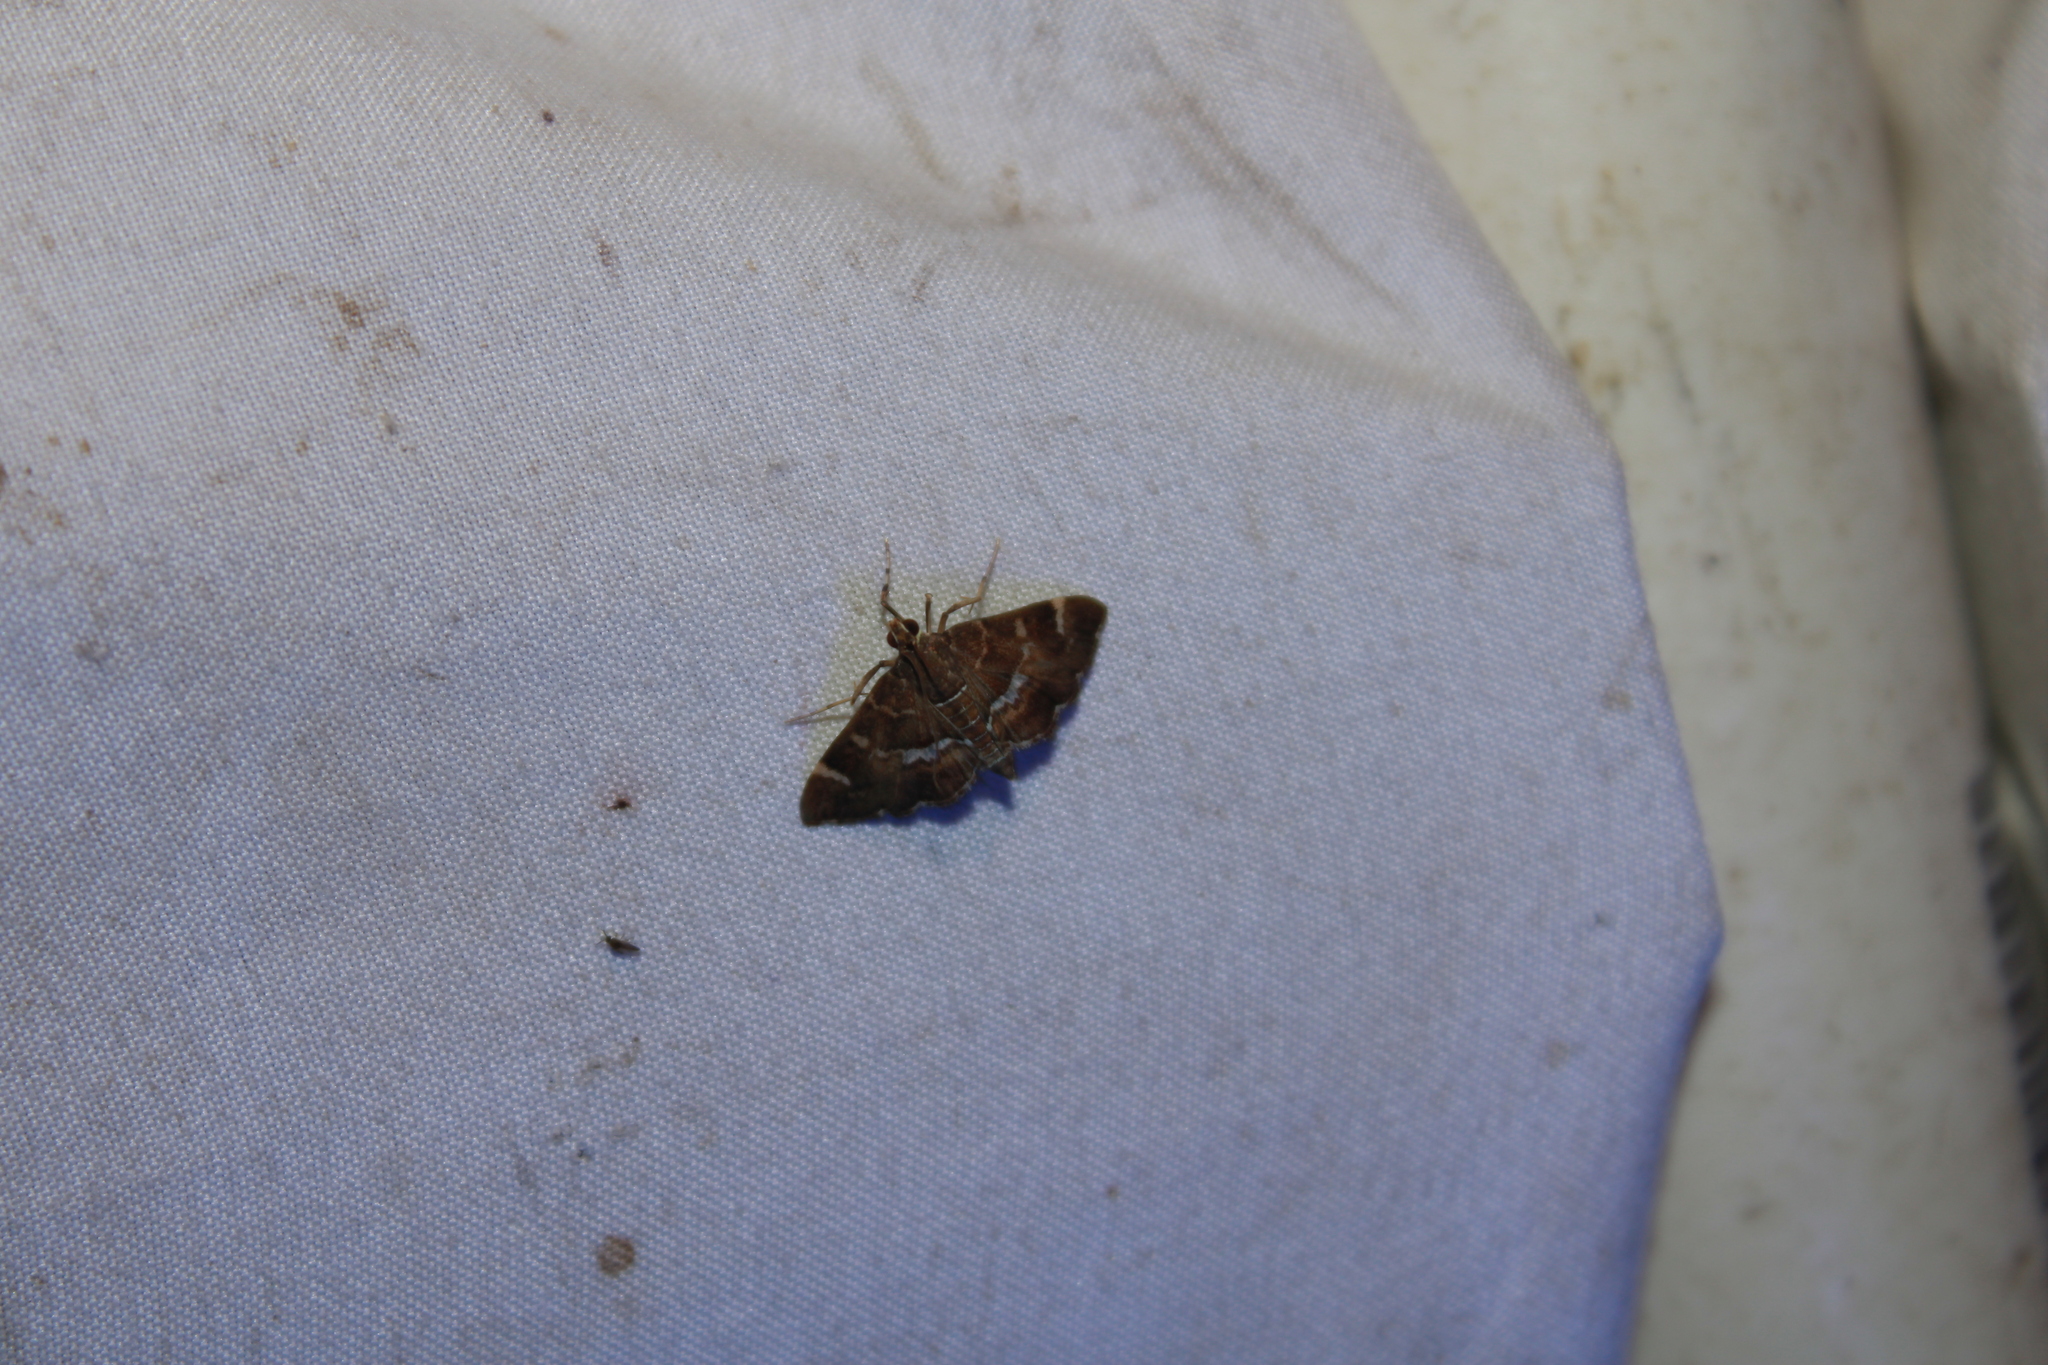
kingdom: Animalia
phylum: Arthropoda
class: Insecta
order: Lepidoptera
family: Crambidae
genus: Hymenia
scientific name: Hymenia perspectalis
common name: Spotted beet webworm
